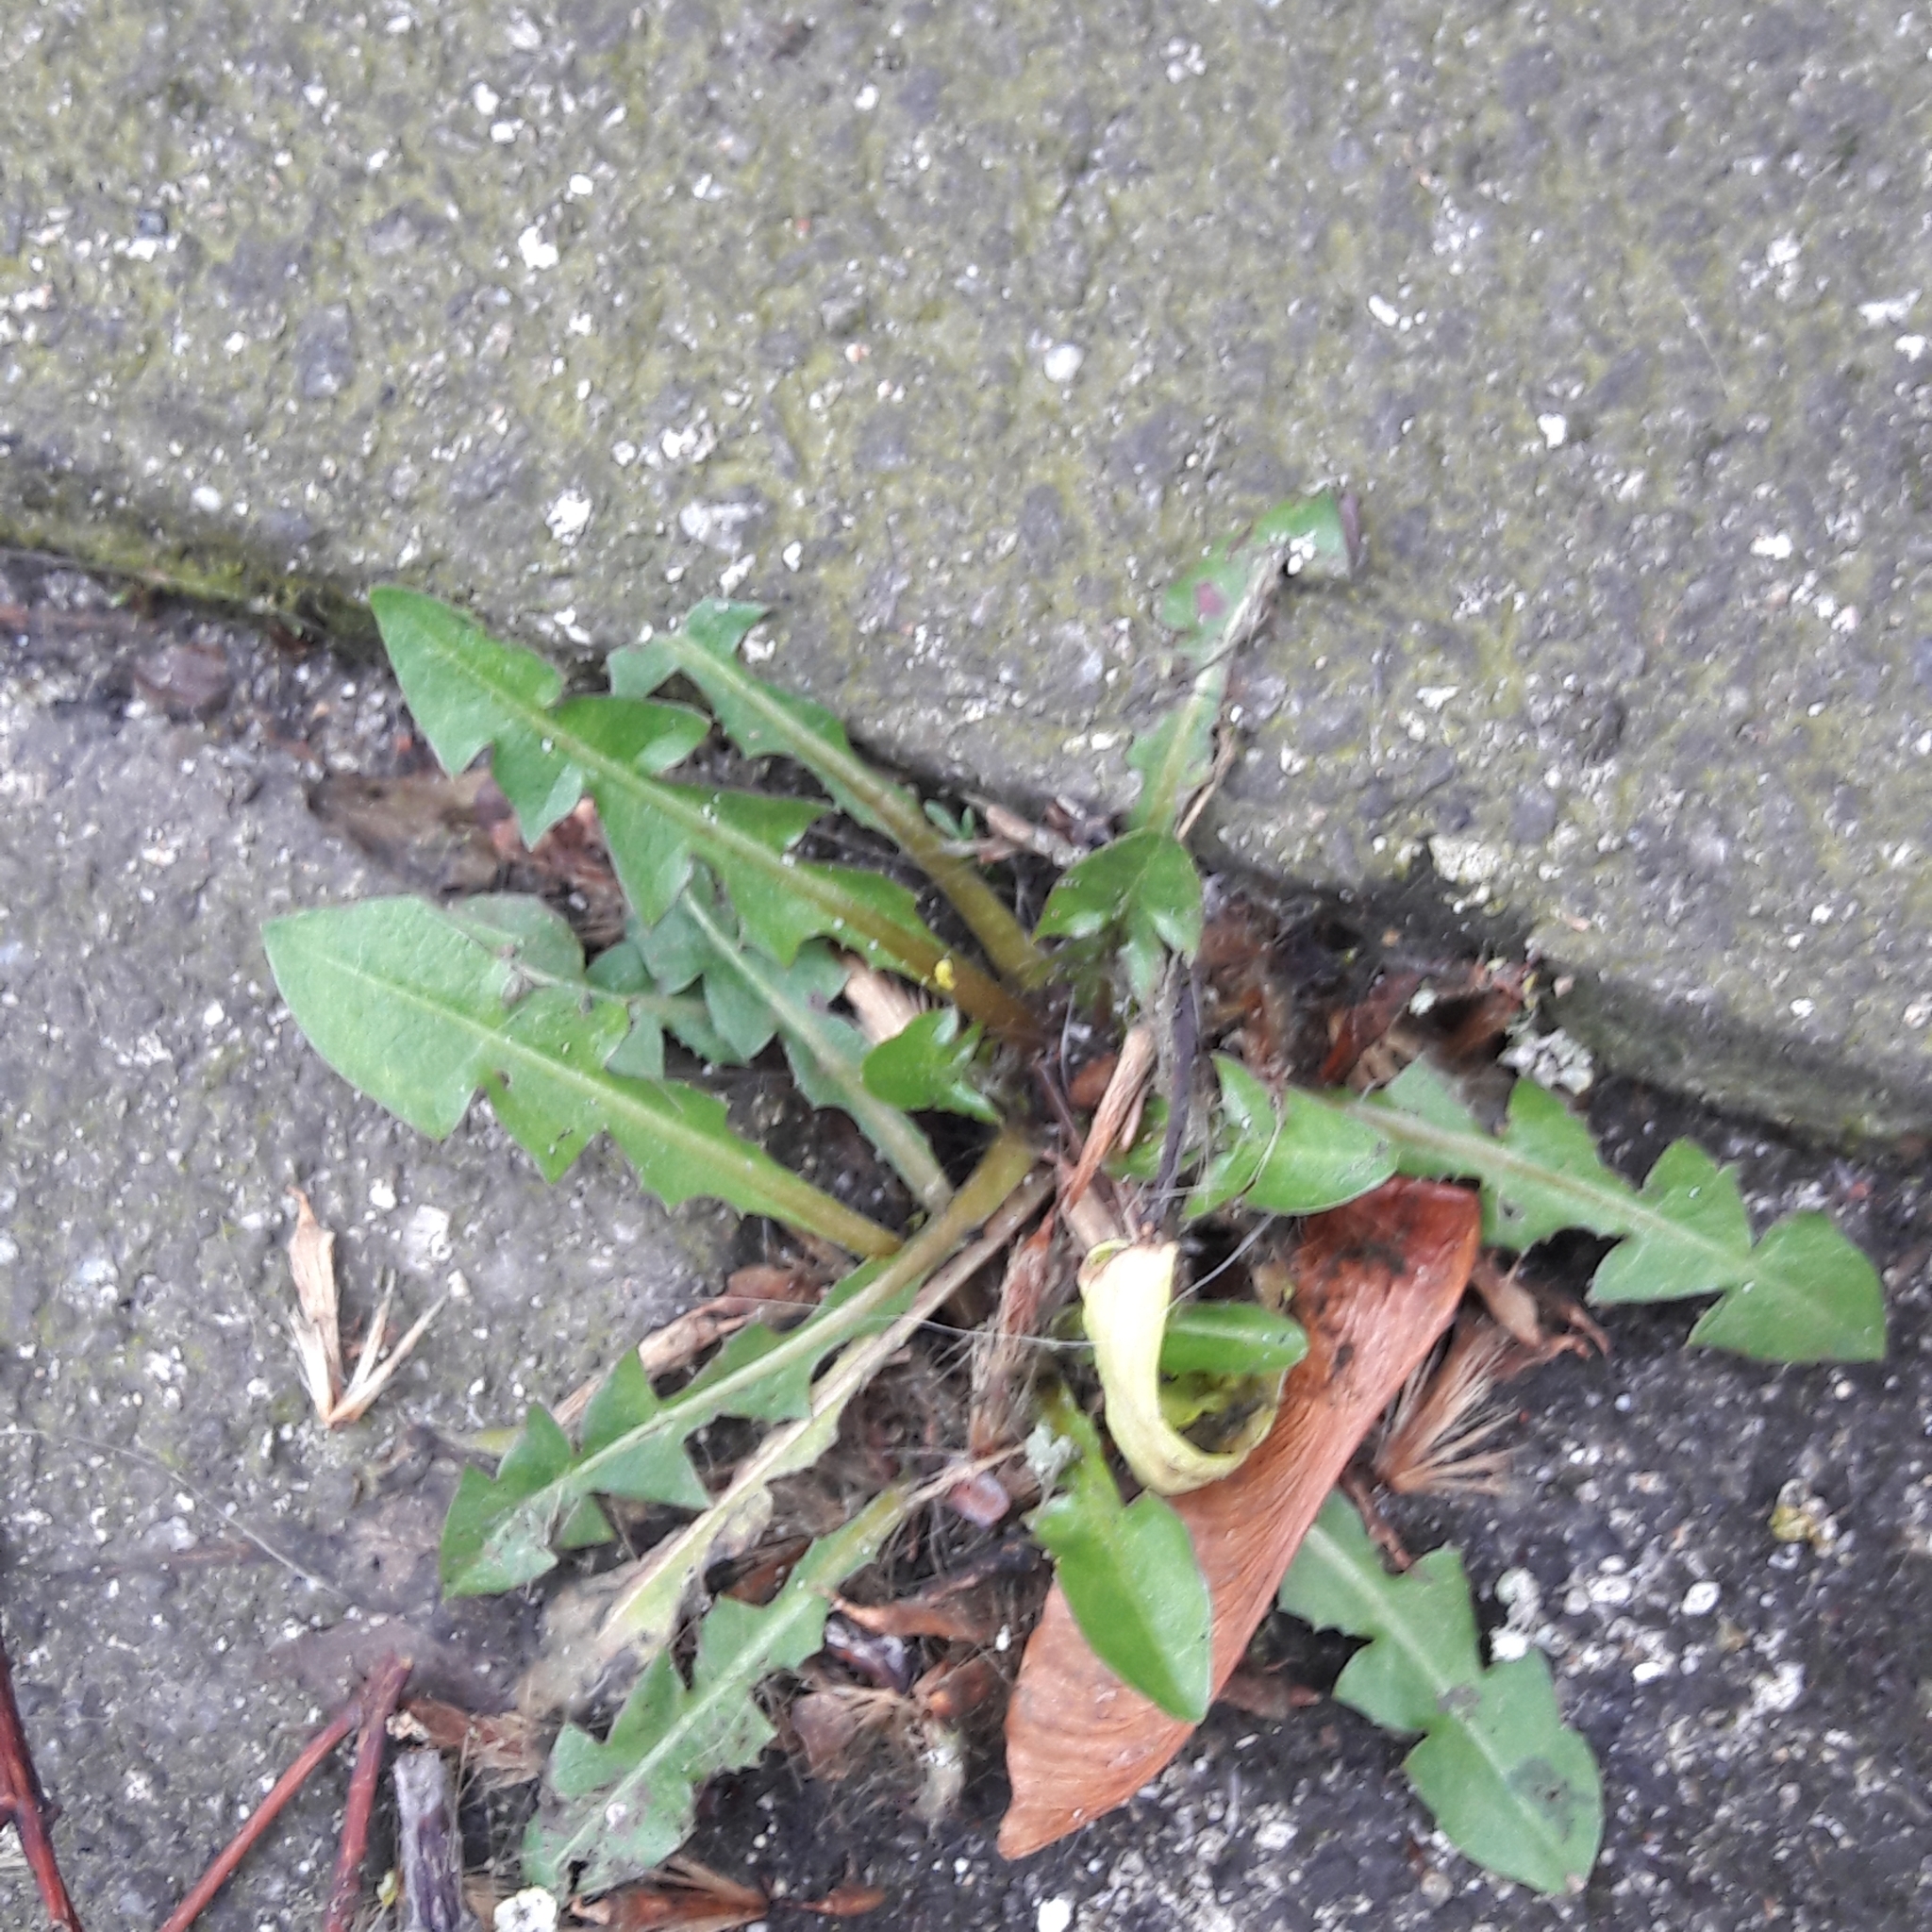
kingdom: Plantae
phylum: Tracheophyta
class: Magnoliopsida
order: Asterales
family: Asteraceae
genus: Taraxacum
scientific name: Taraxacum officinale
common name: Common dandelion
